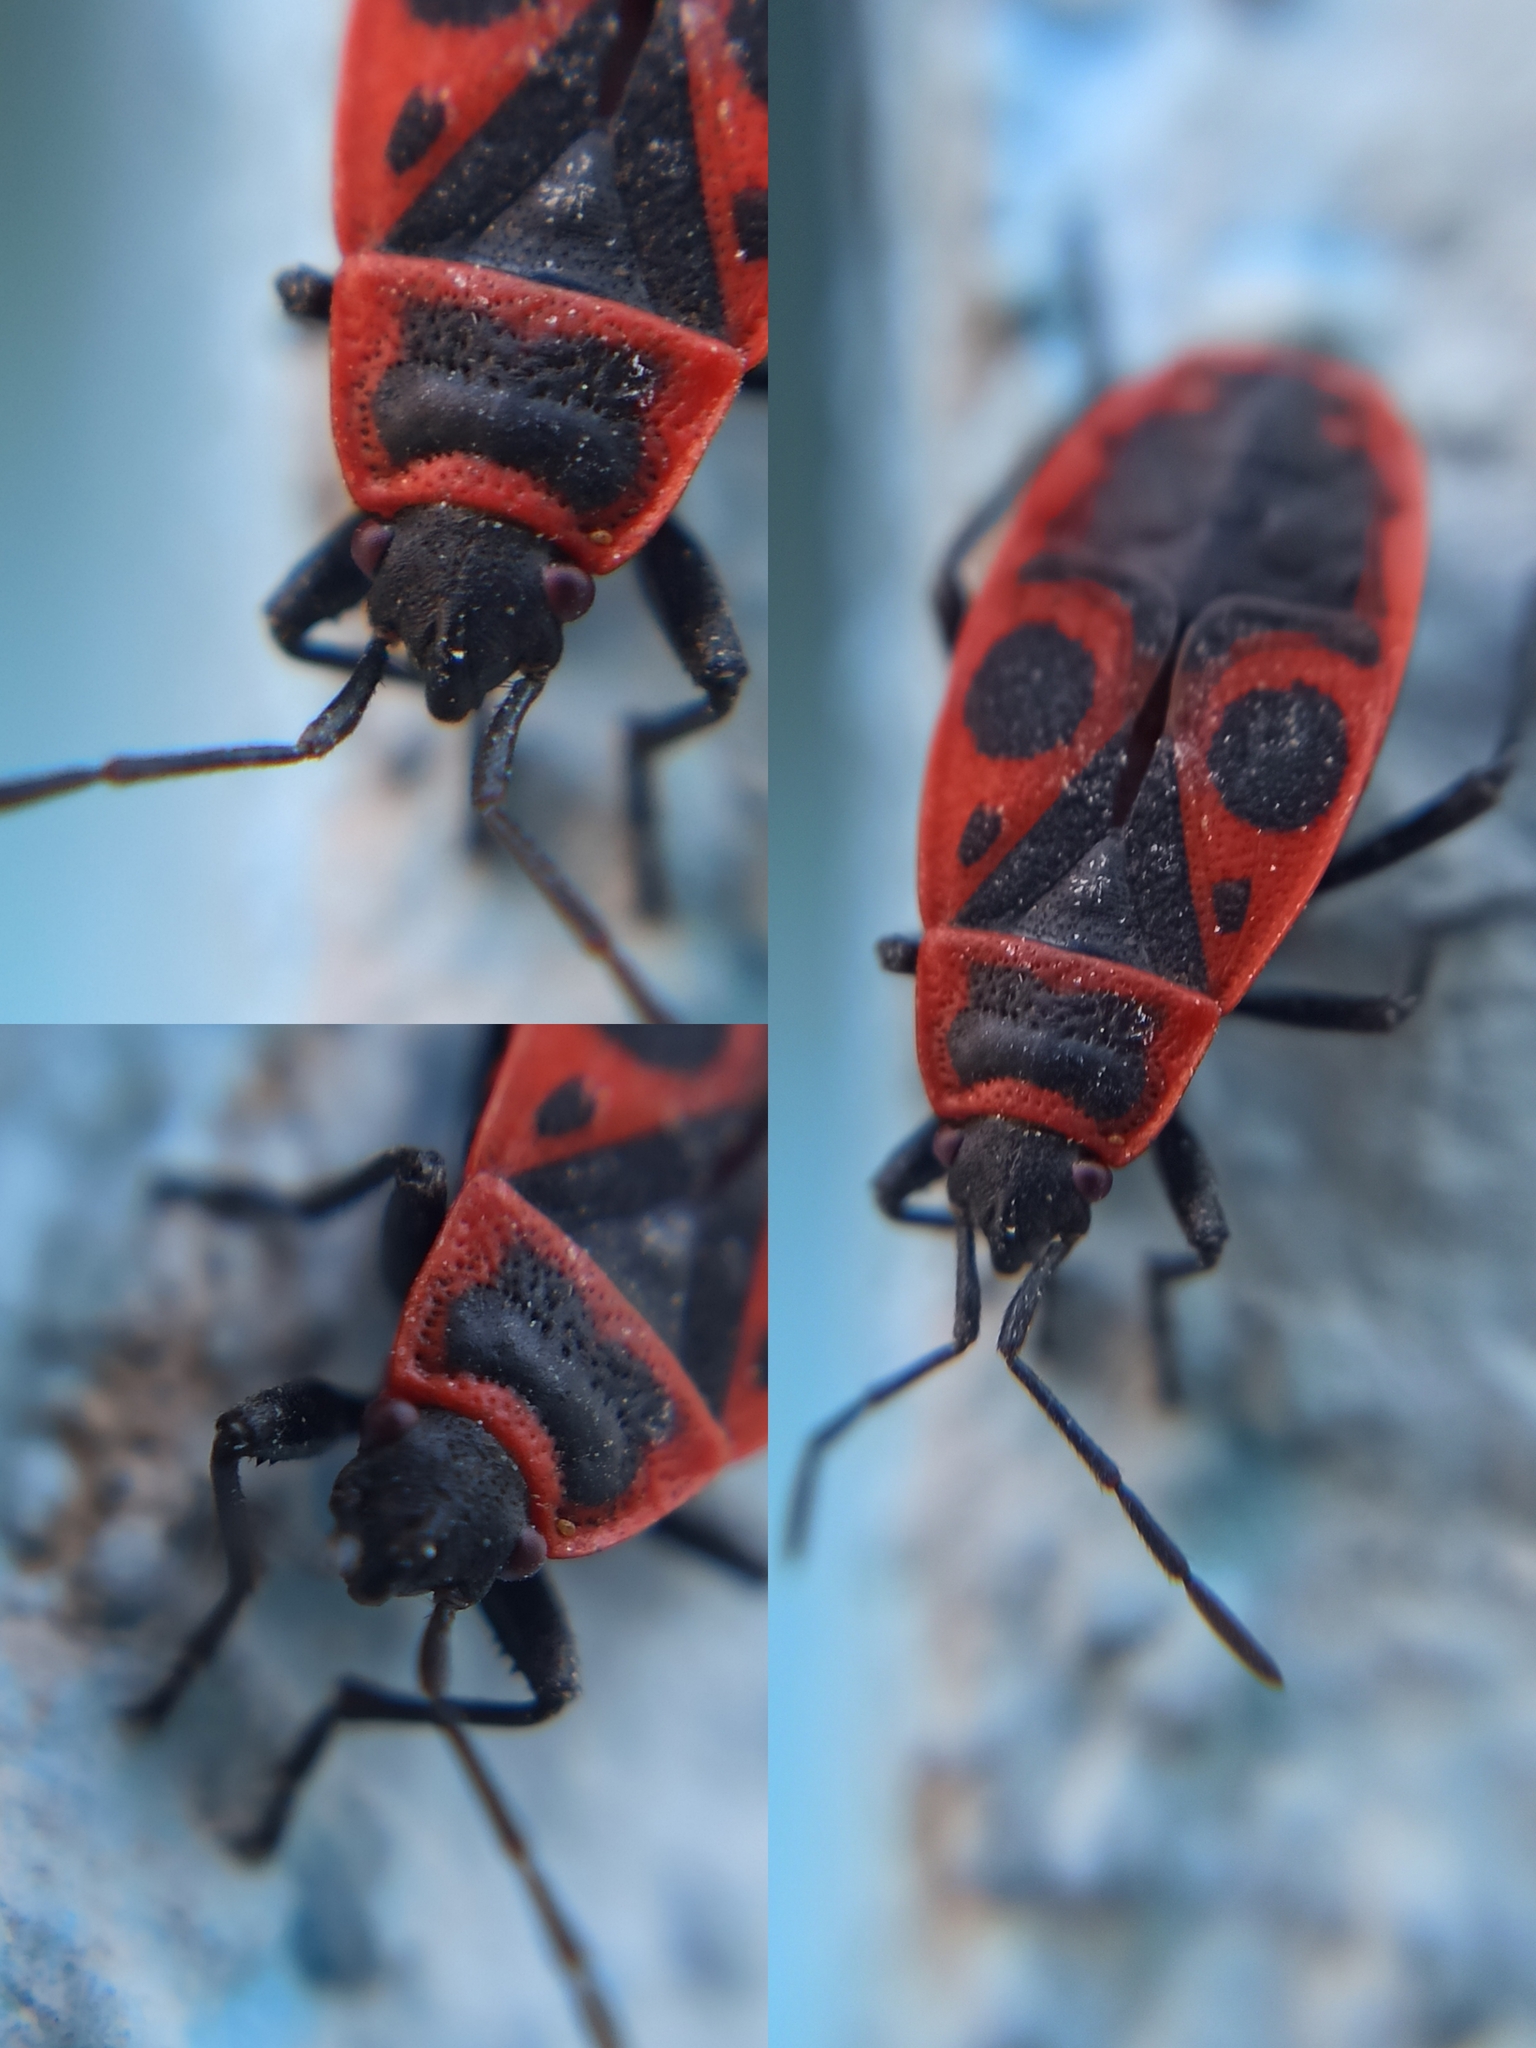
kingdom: Animalia
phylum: Arthropoda
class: Insecta
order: Hemiptera
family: Pyrrhocoridae
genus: Pyrrhocoris
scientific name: Pyrrhocoris apterus
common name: Firebug
